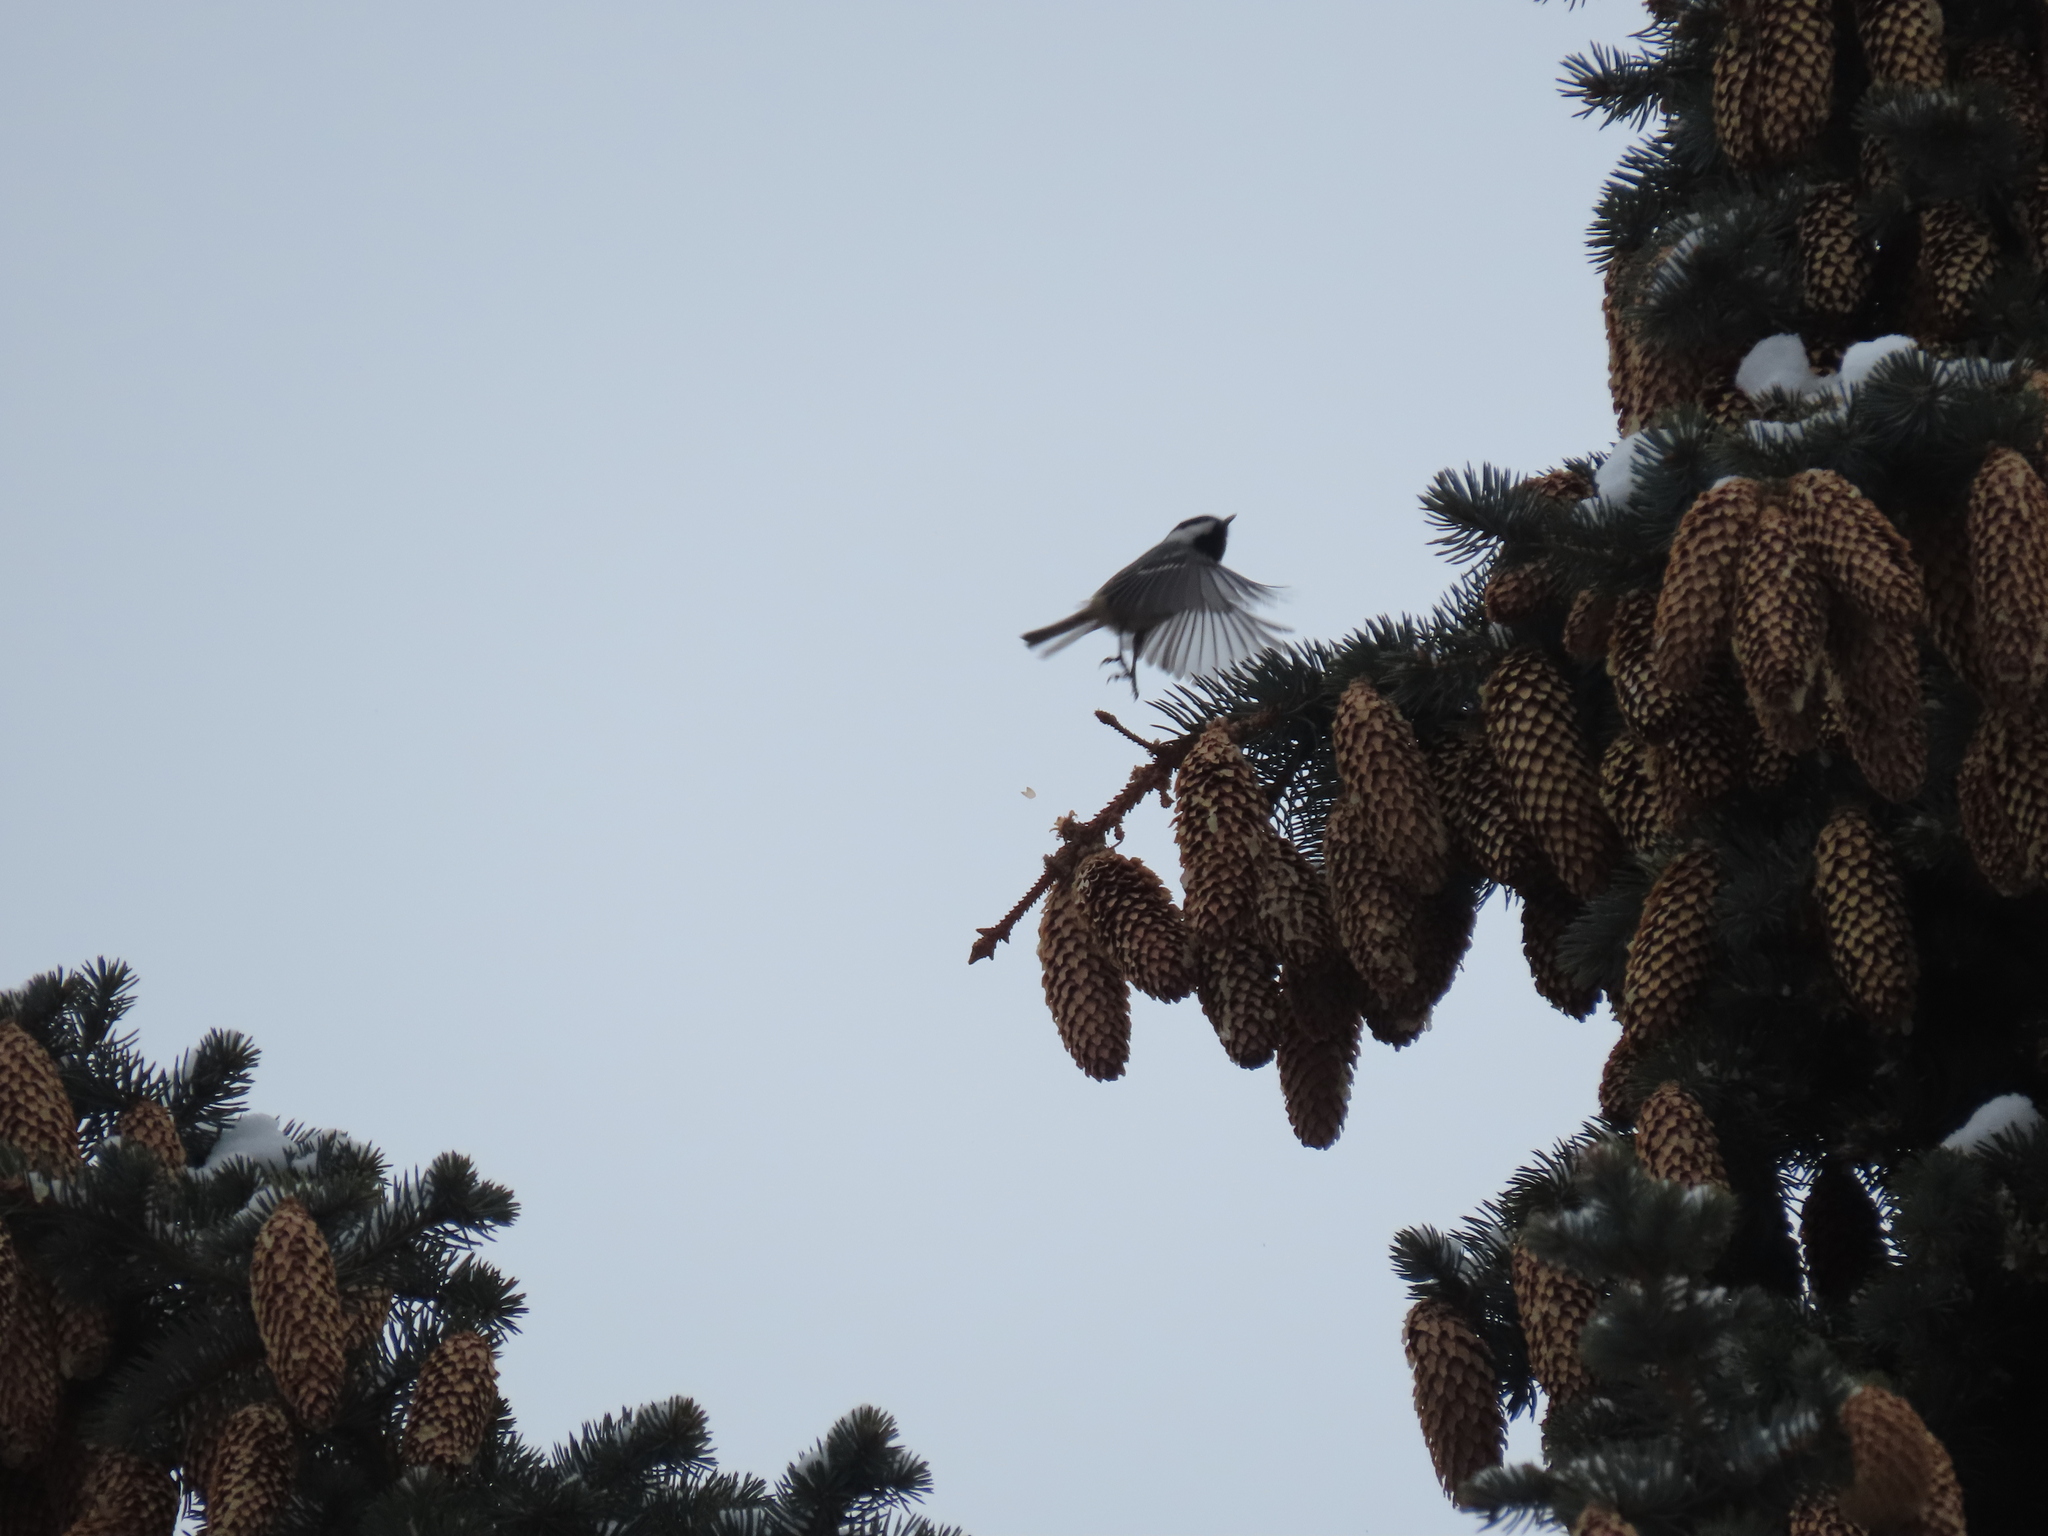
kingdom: Animalia
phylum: Chordata
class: Aves
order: Passeriformes
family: Paridae
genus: Periparus
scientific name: Periparus ater
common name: Coal tit
